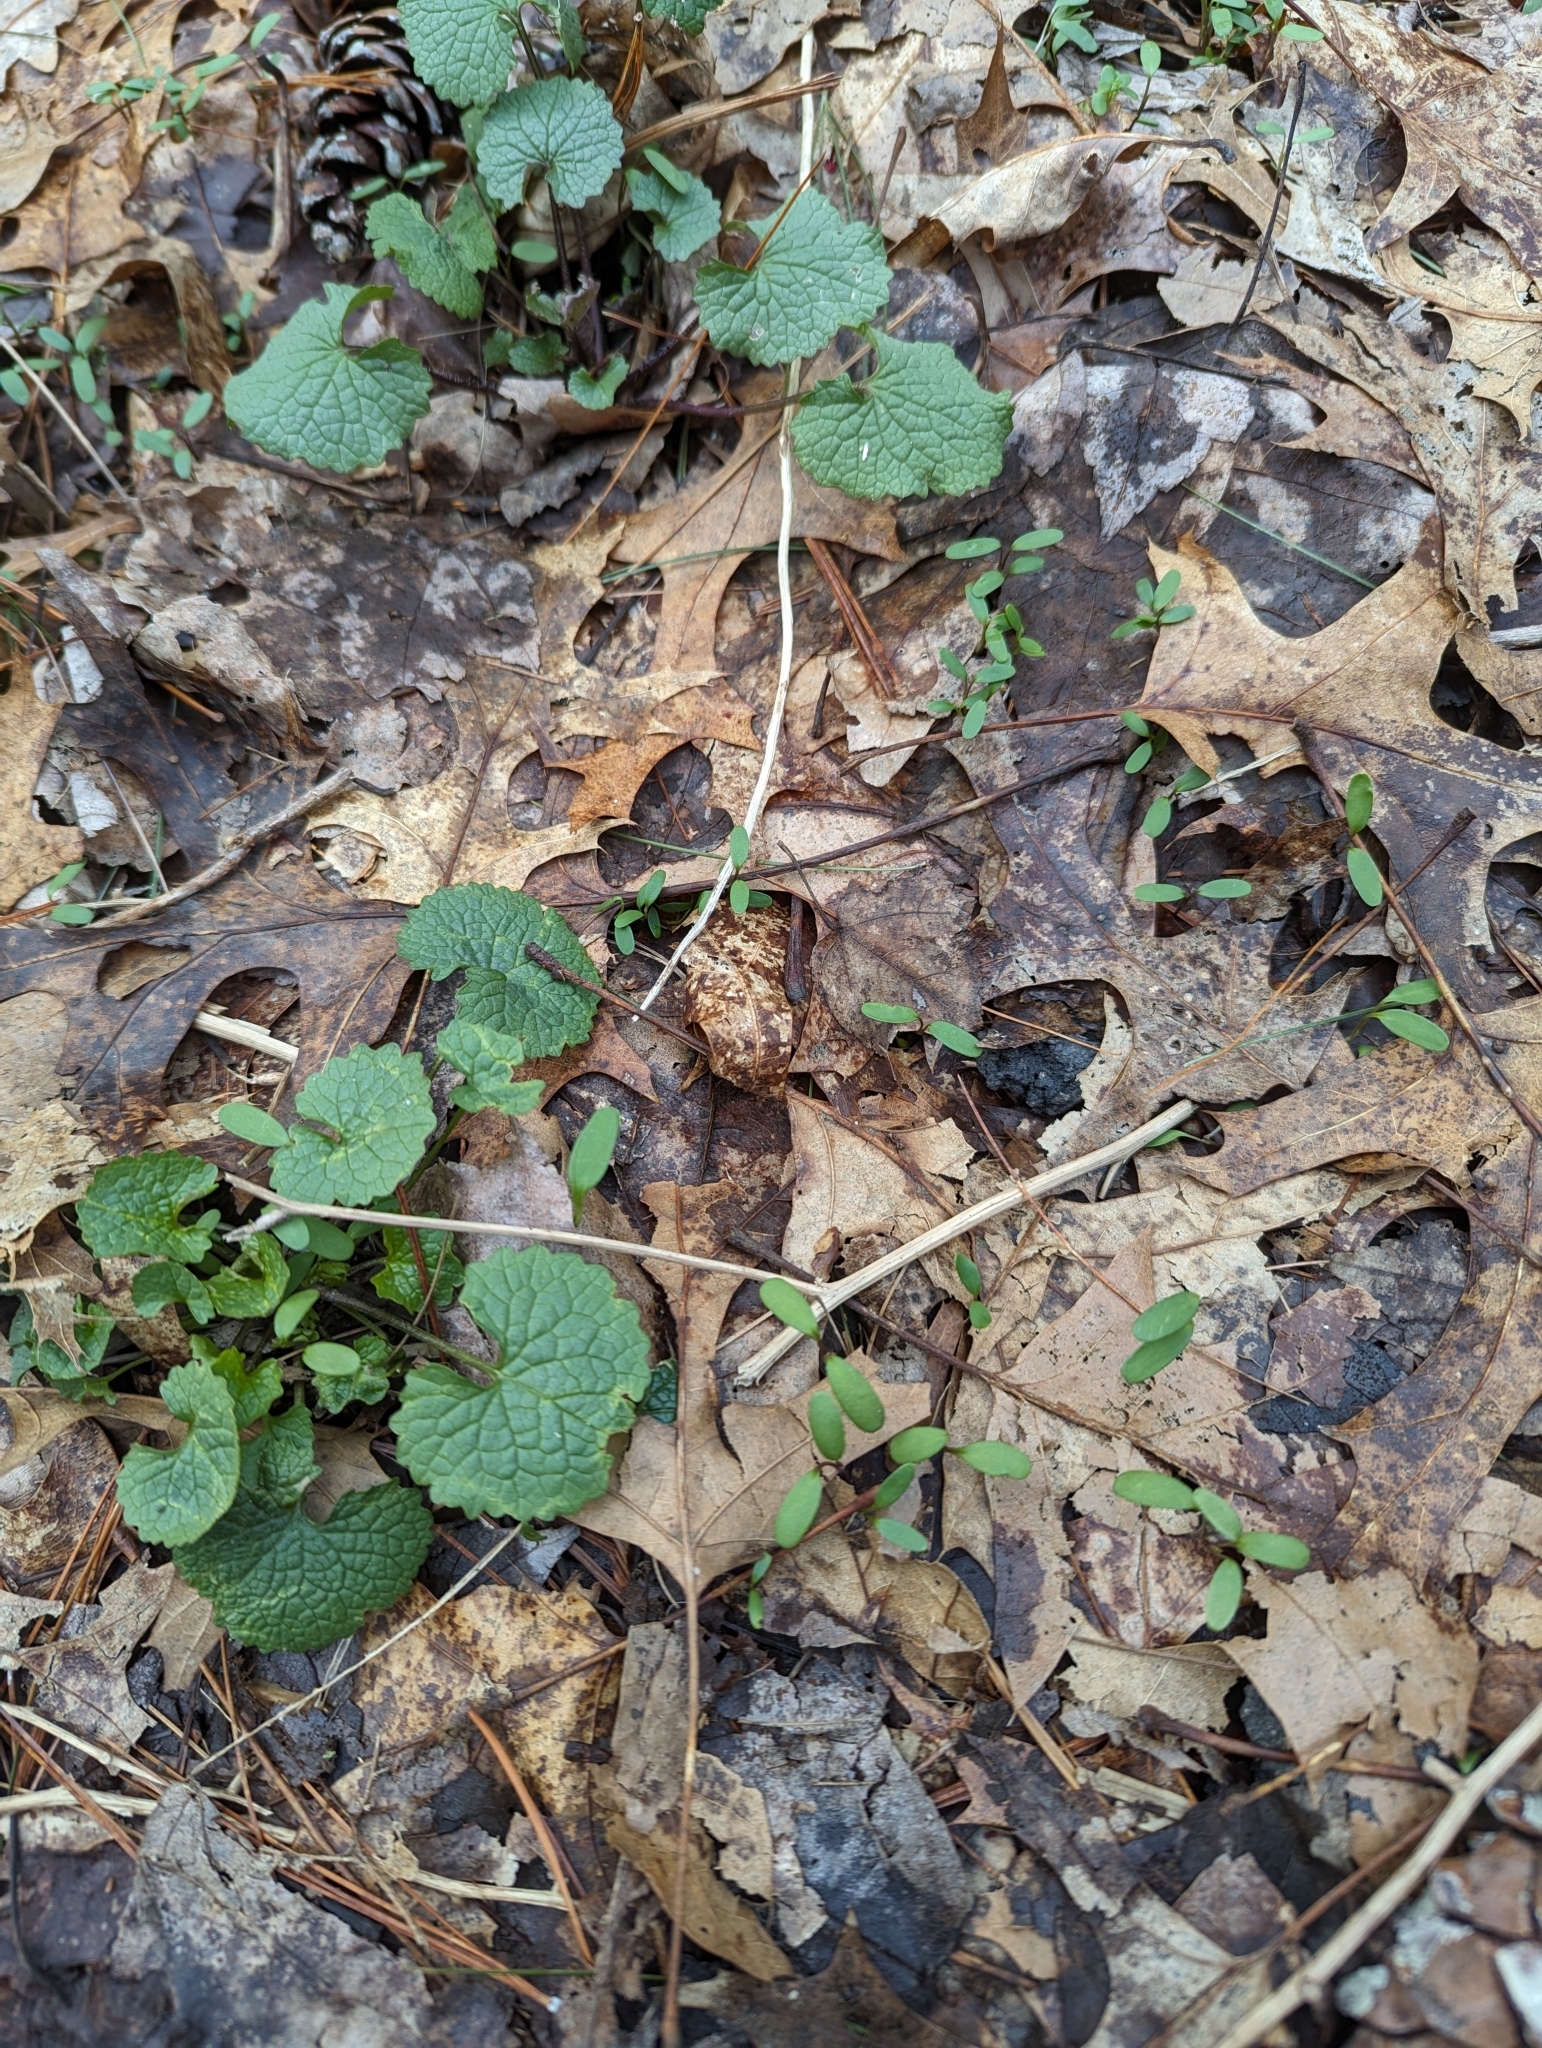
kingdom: Plantae
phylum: Tracheophyta
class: Magnoliopsida
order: Brassicales
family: Brassicaceae
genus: Alliaria
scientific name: Alliaria petiolata
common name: Garlic mustard
